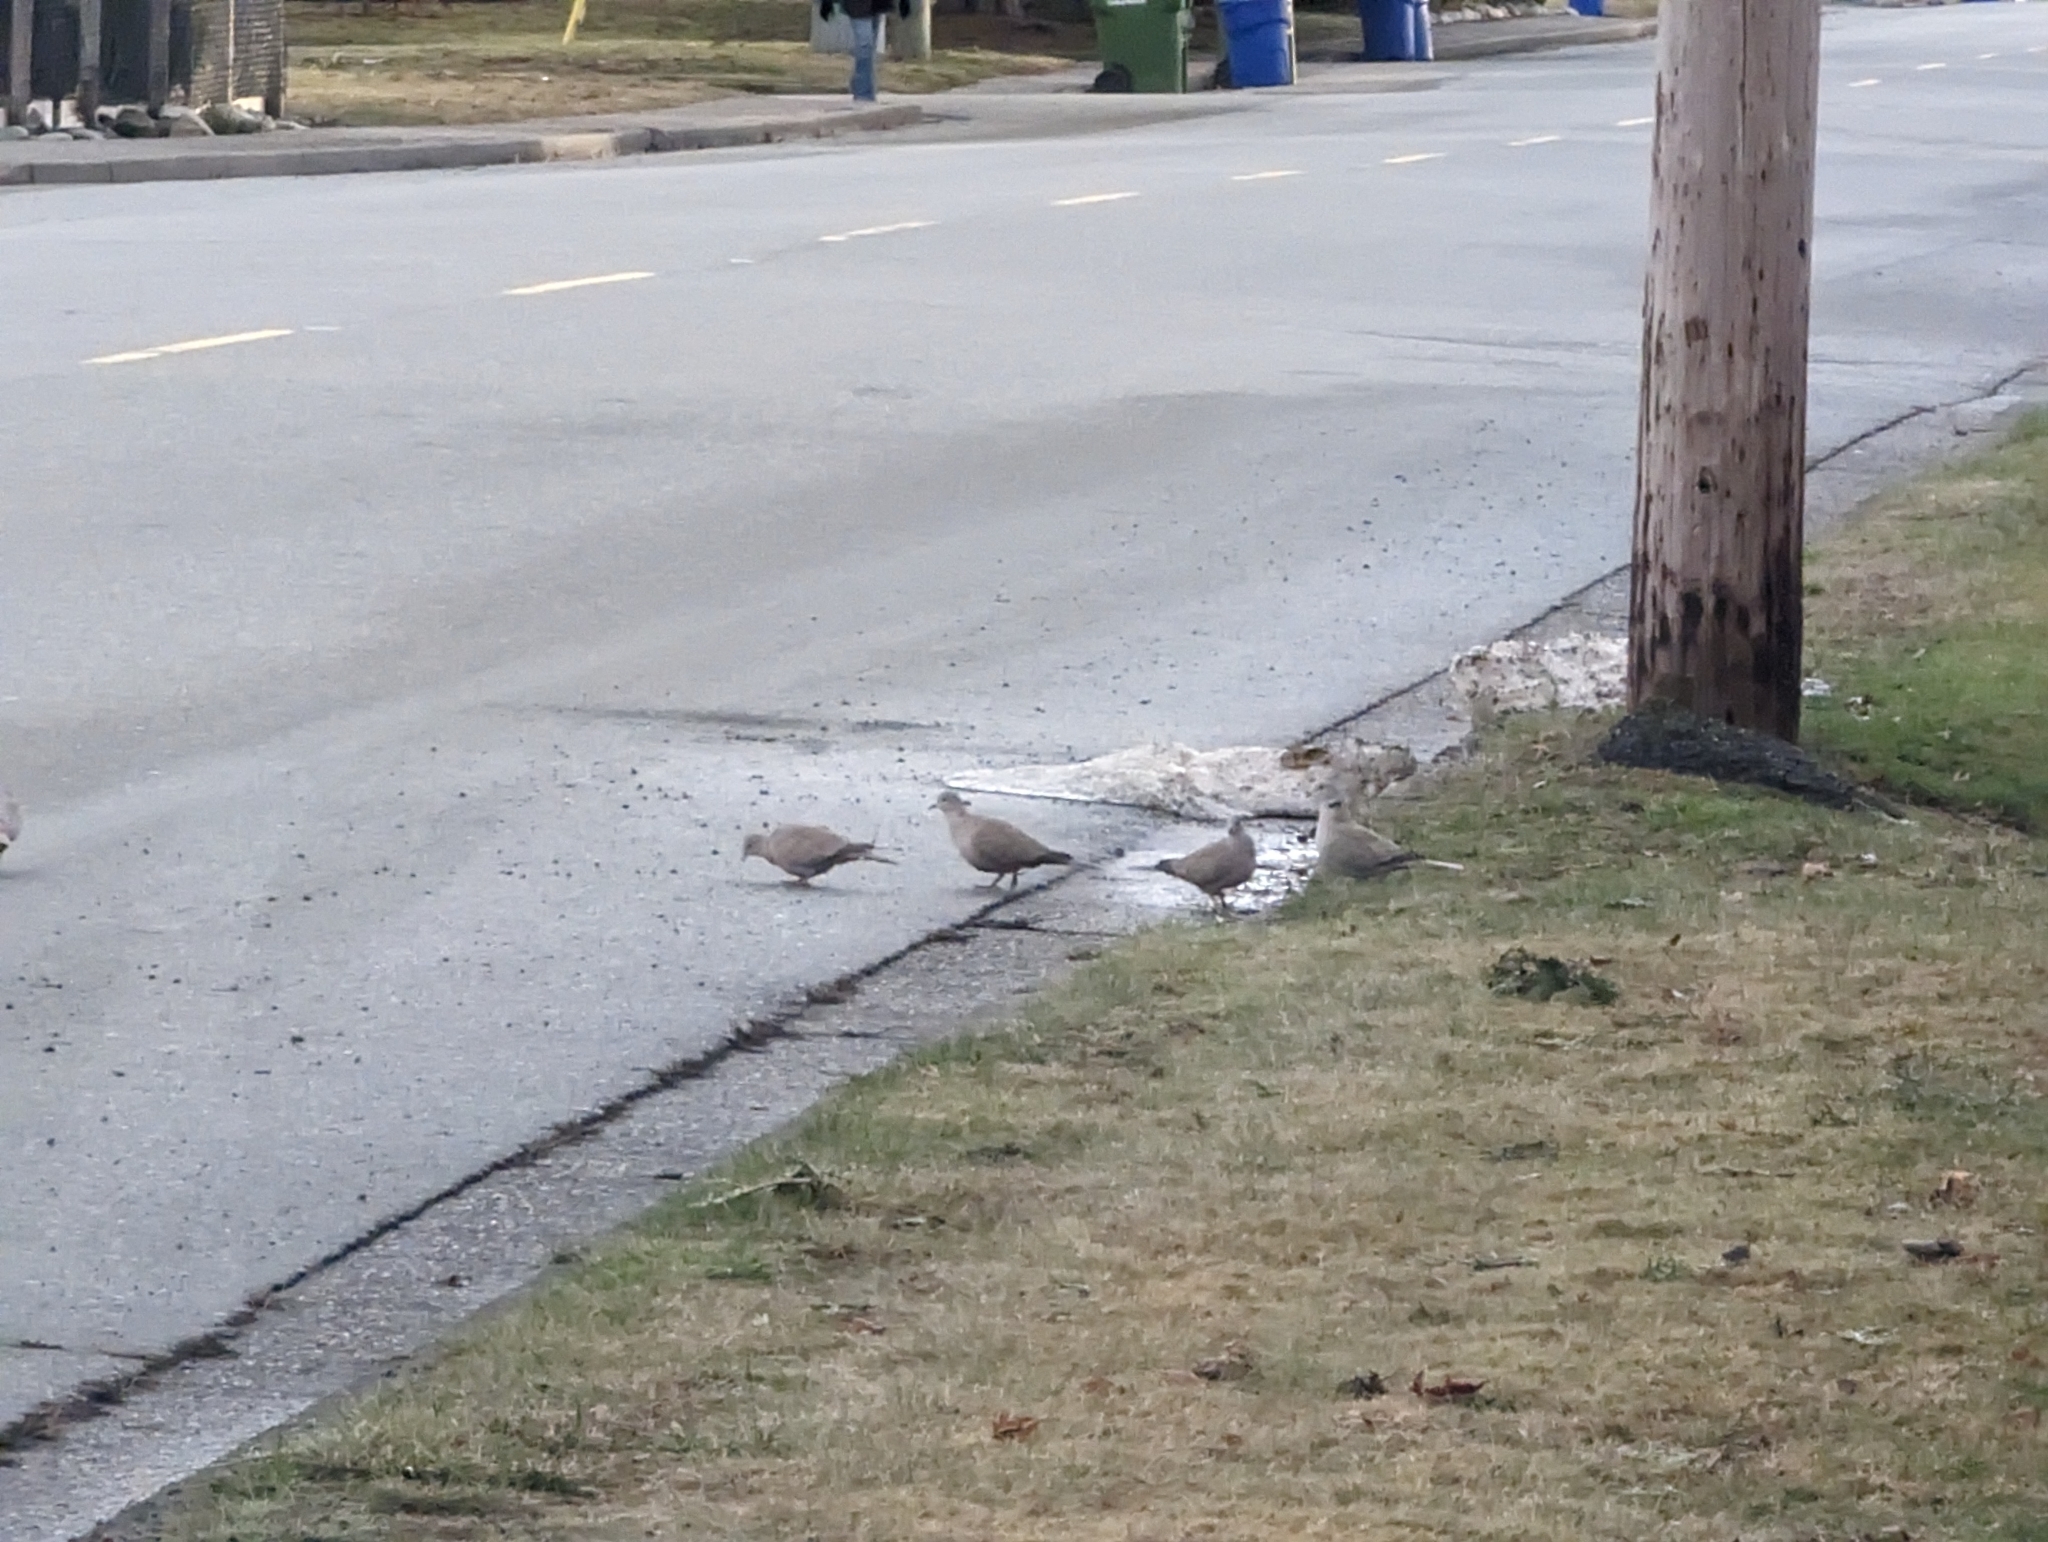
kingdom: Animalia
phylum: Chordata
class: Aves
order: Columbiformes
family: Columbidae
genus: Streptopelia
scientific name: Streptopelia decaocto
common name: Eurasian collared dove
